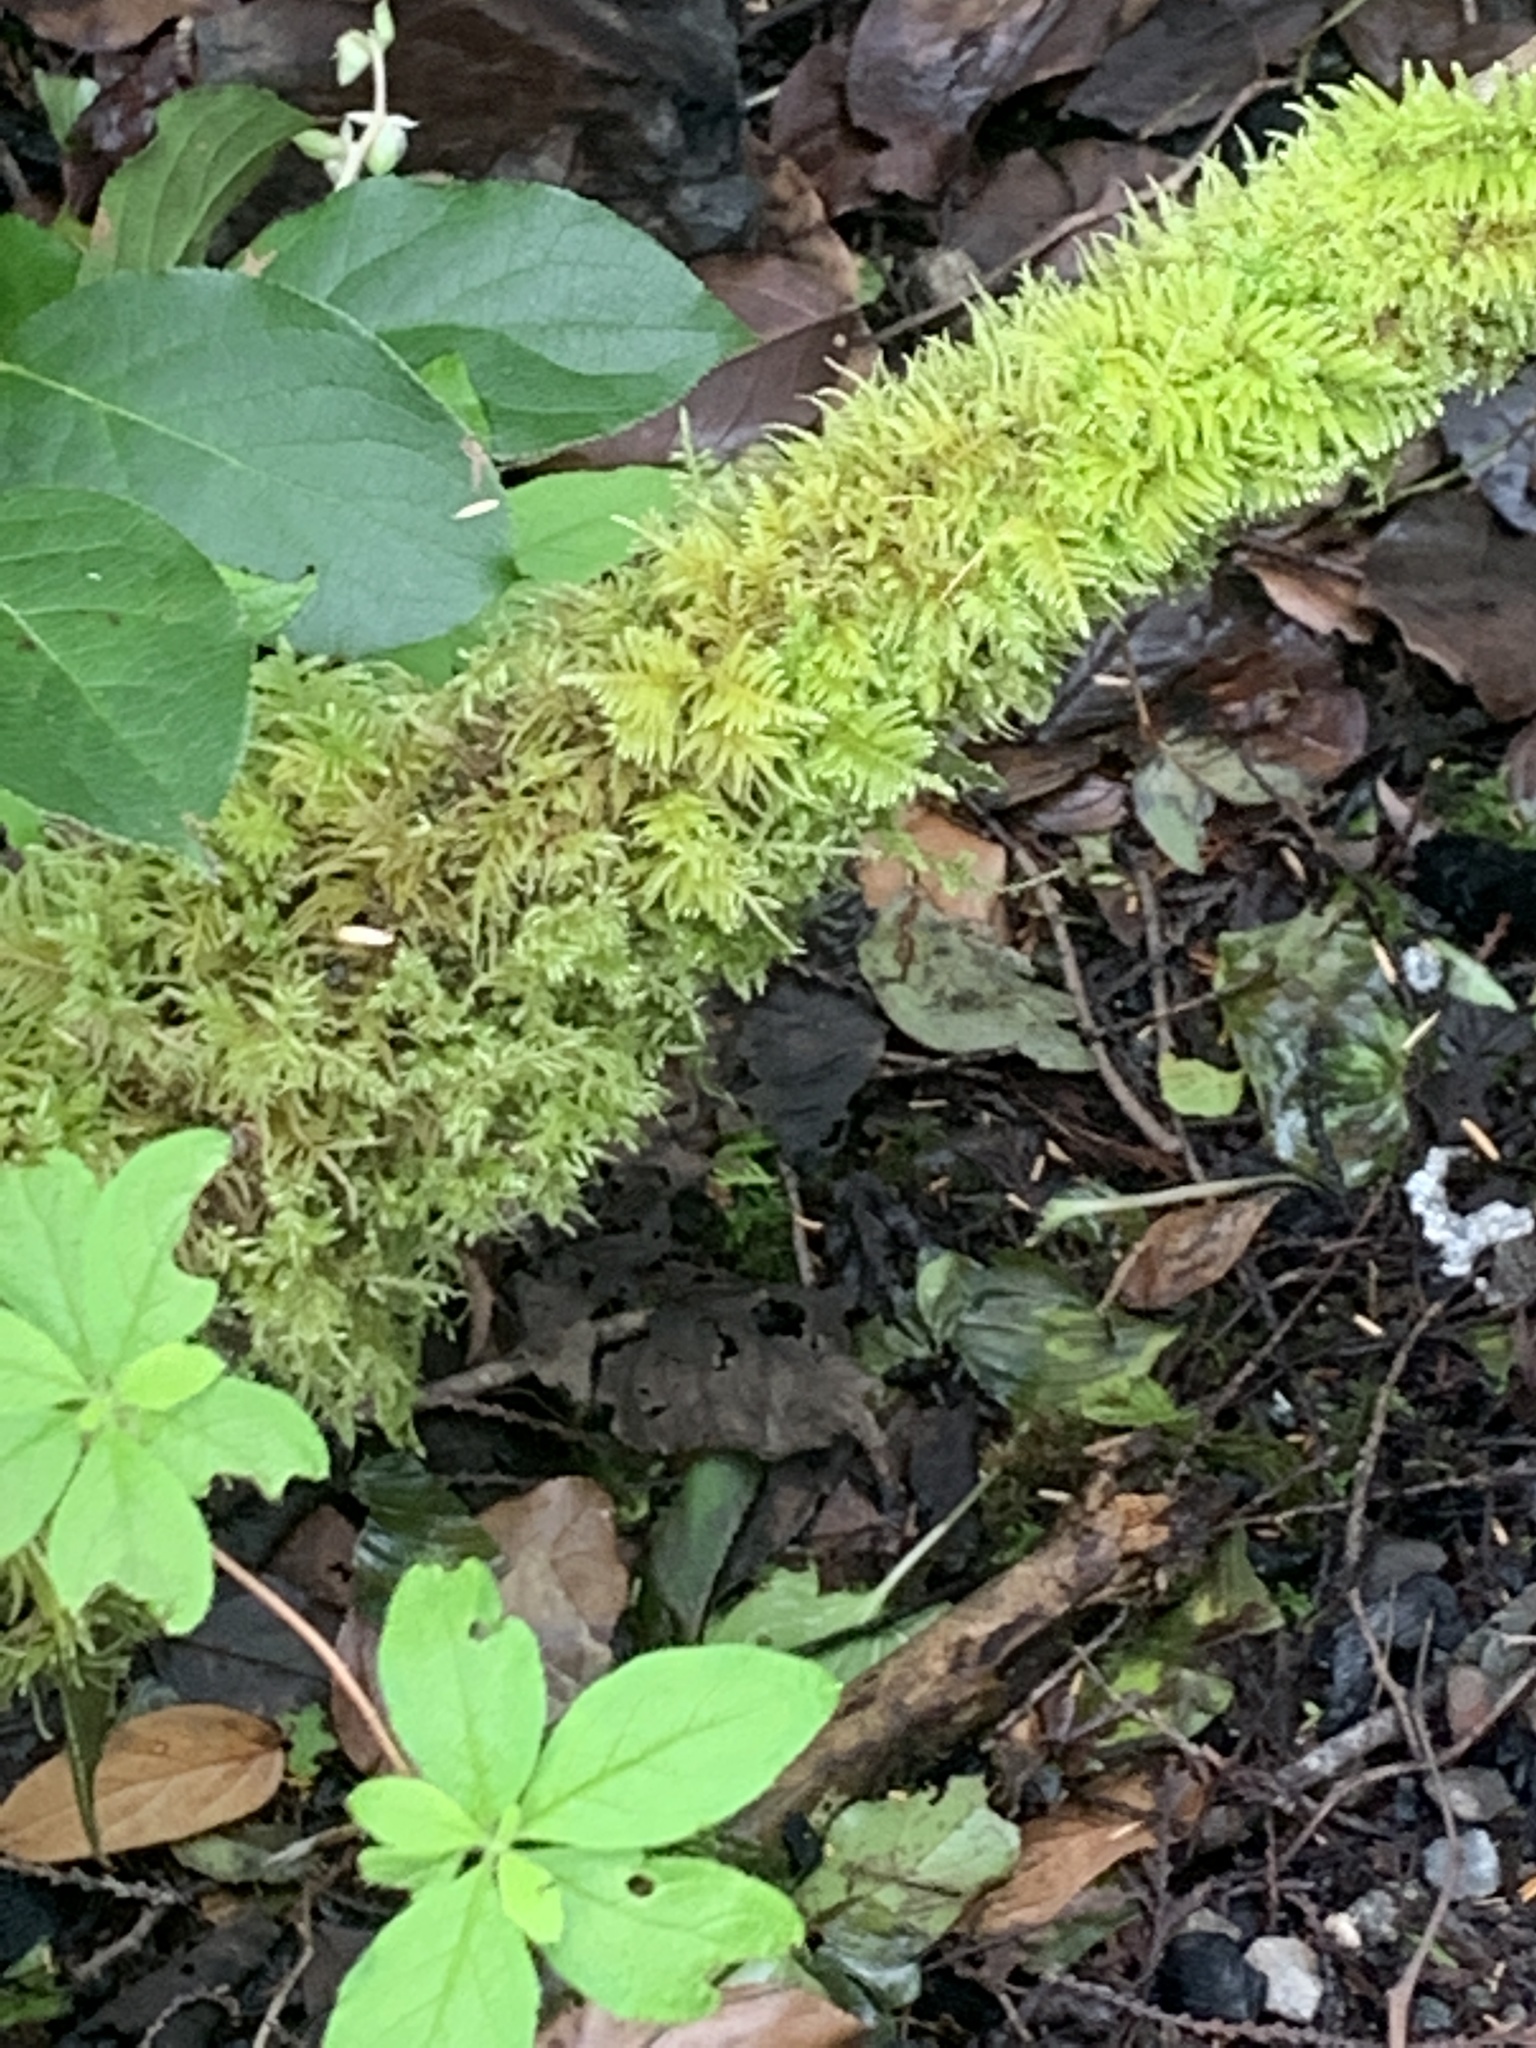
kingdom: Plantae
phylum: Bryophyta
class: Bryopsida
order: Hypnales
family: Brachytheciaceae
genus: Kindbergia
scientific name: Kindbergia oregana
